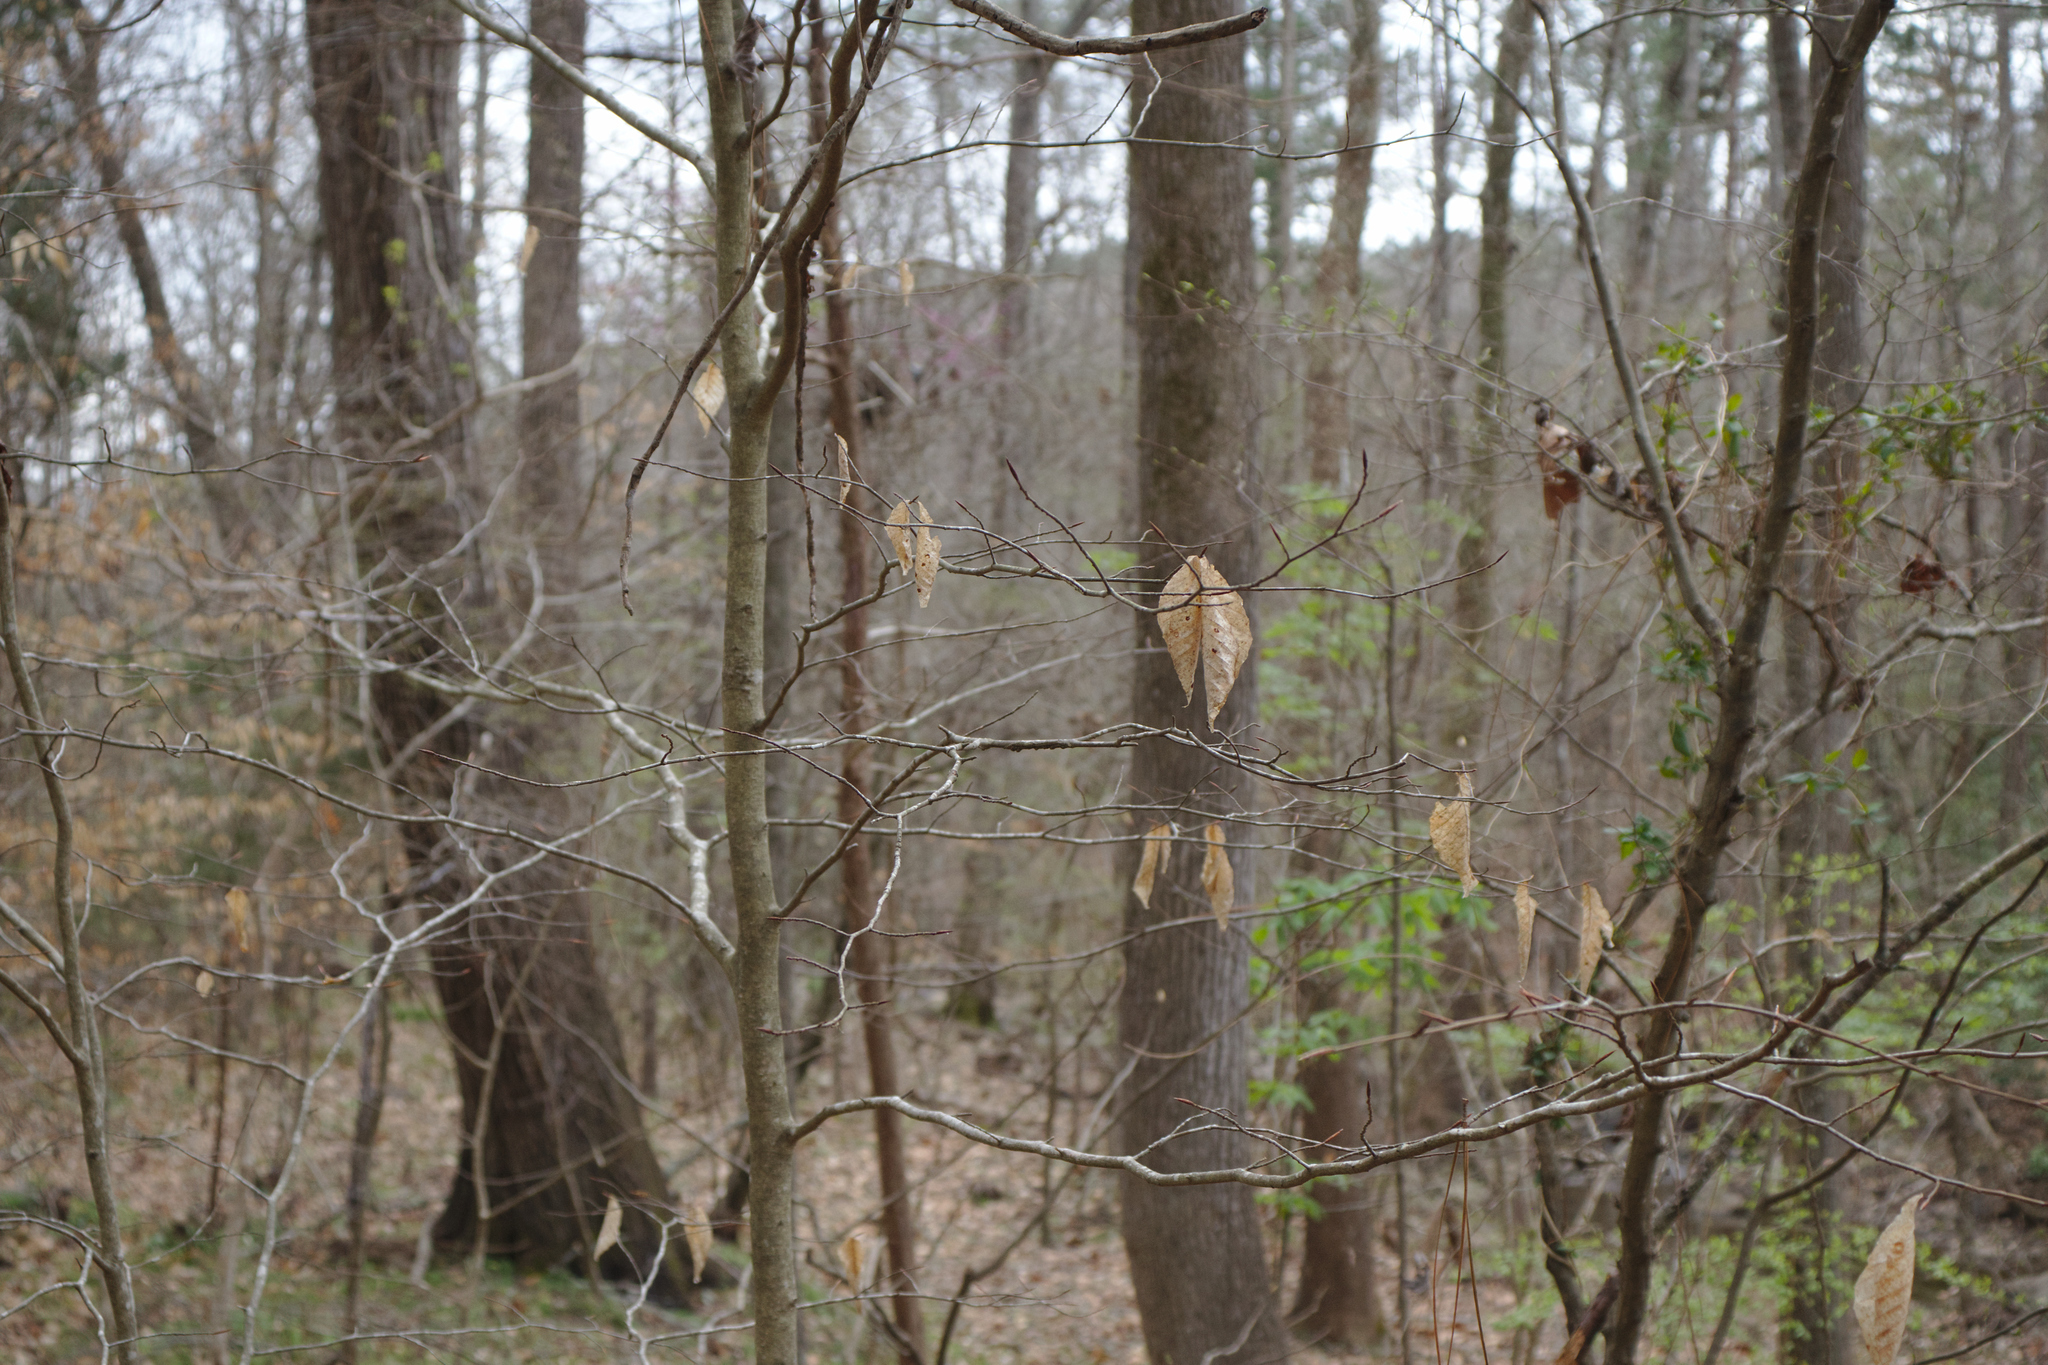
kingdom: Plantae
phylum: Tracheophyta
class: Magnoliopsida
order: Fagales
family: Fagaceae
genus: Fagus
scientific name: Fagus grandifolia
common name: American beech
